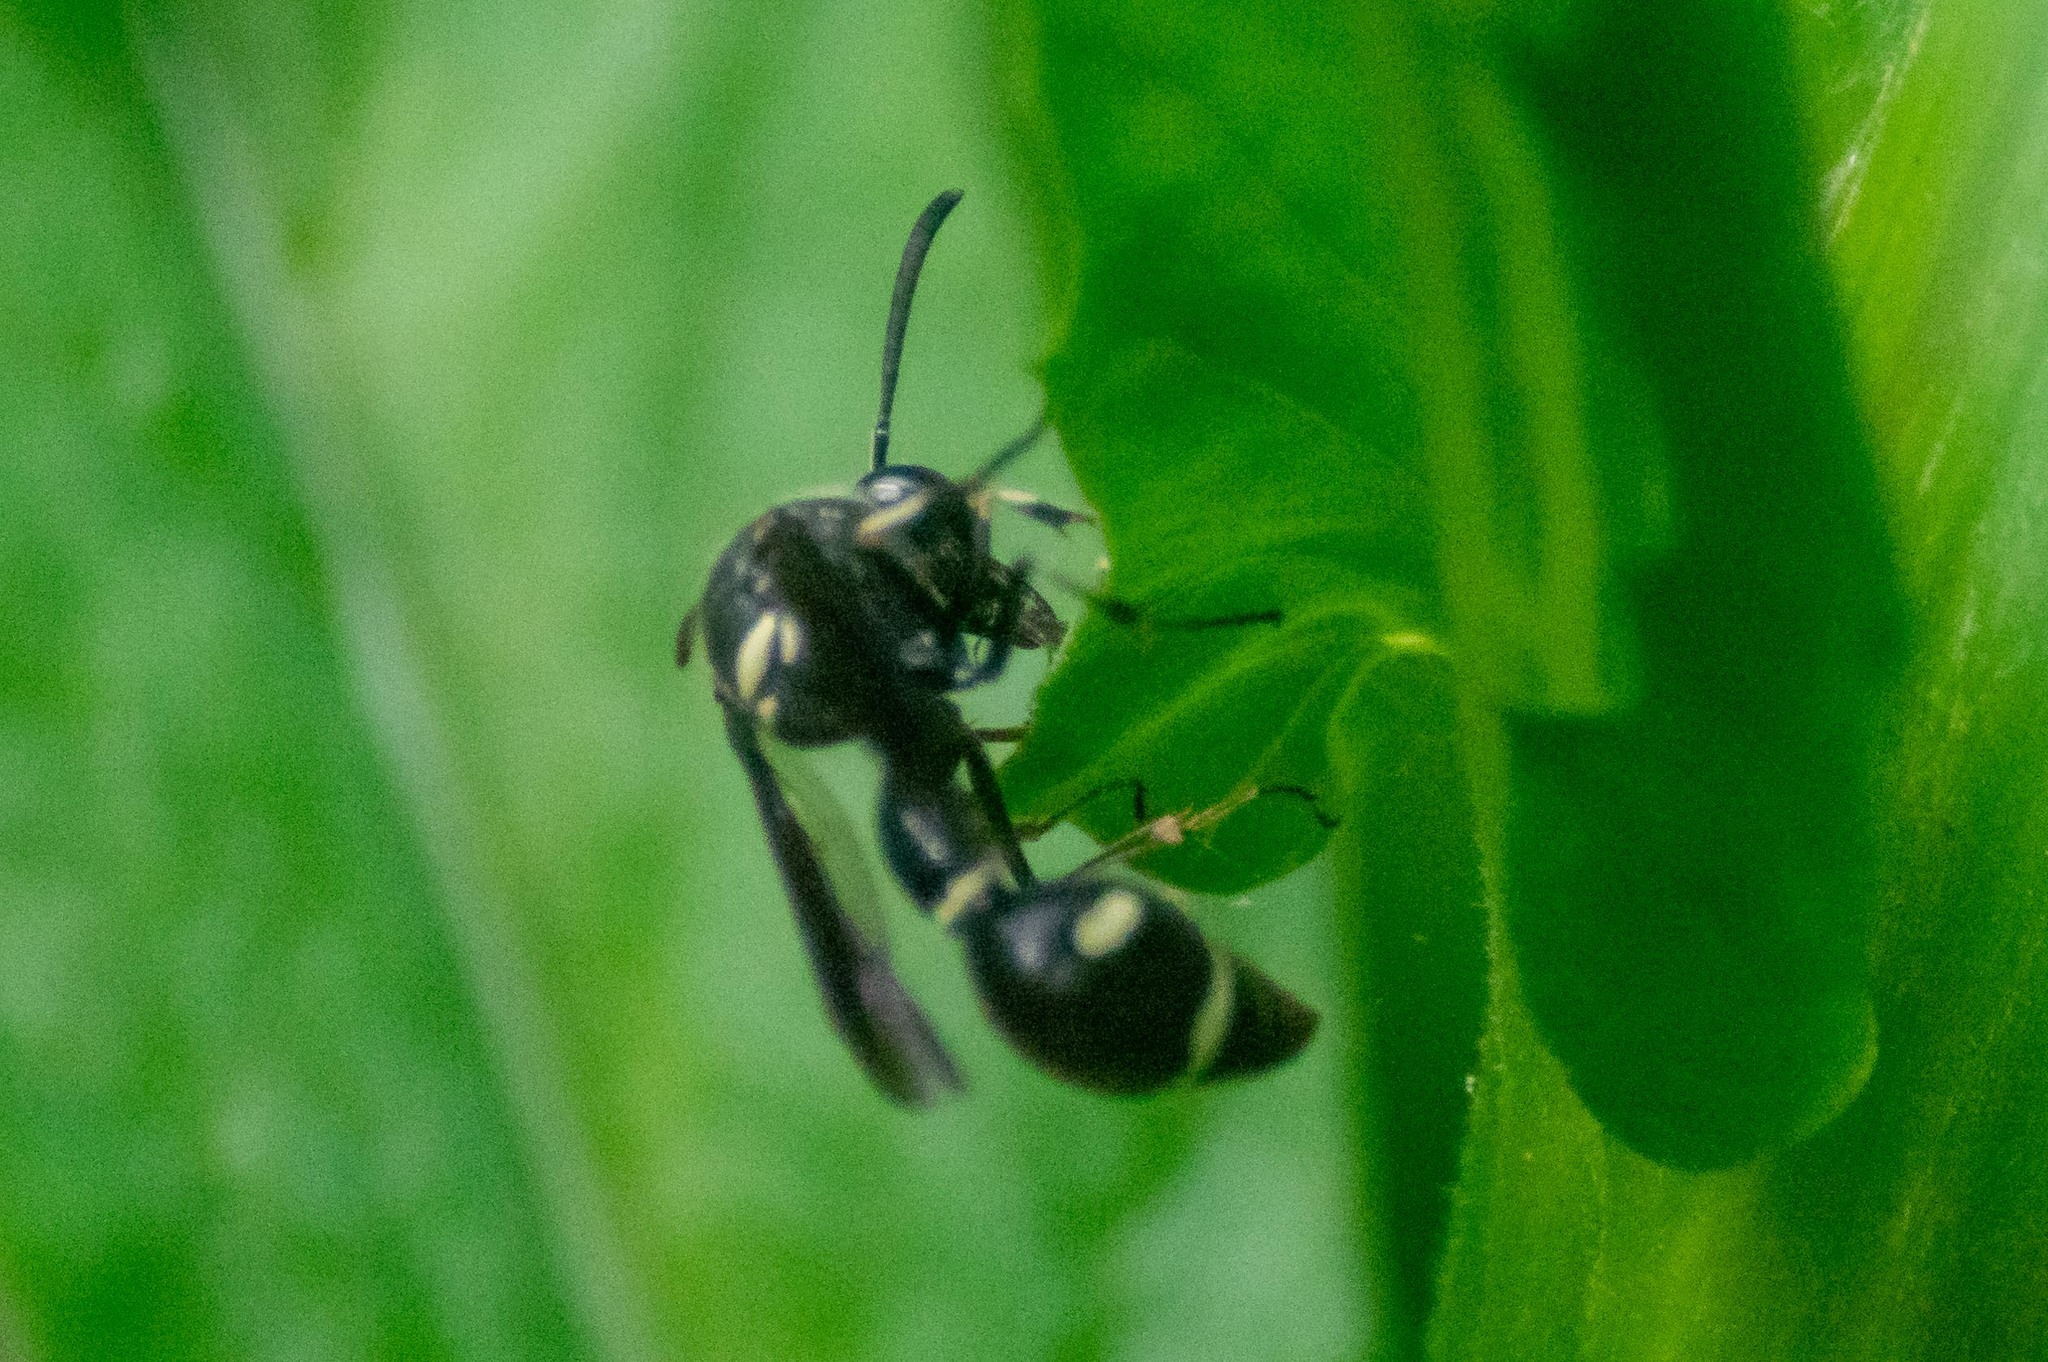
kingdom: Animalia
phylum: Arthropoda
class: Insecta
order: Hymenoptera
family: Vespidae
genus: Eumenes
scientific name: Eumenes fraternus
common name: Fraternal potter wasp
